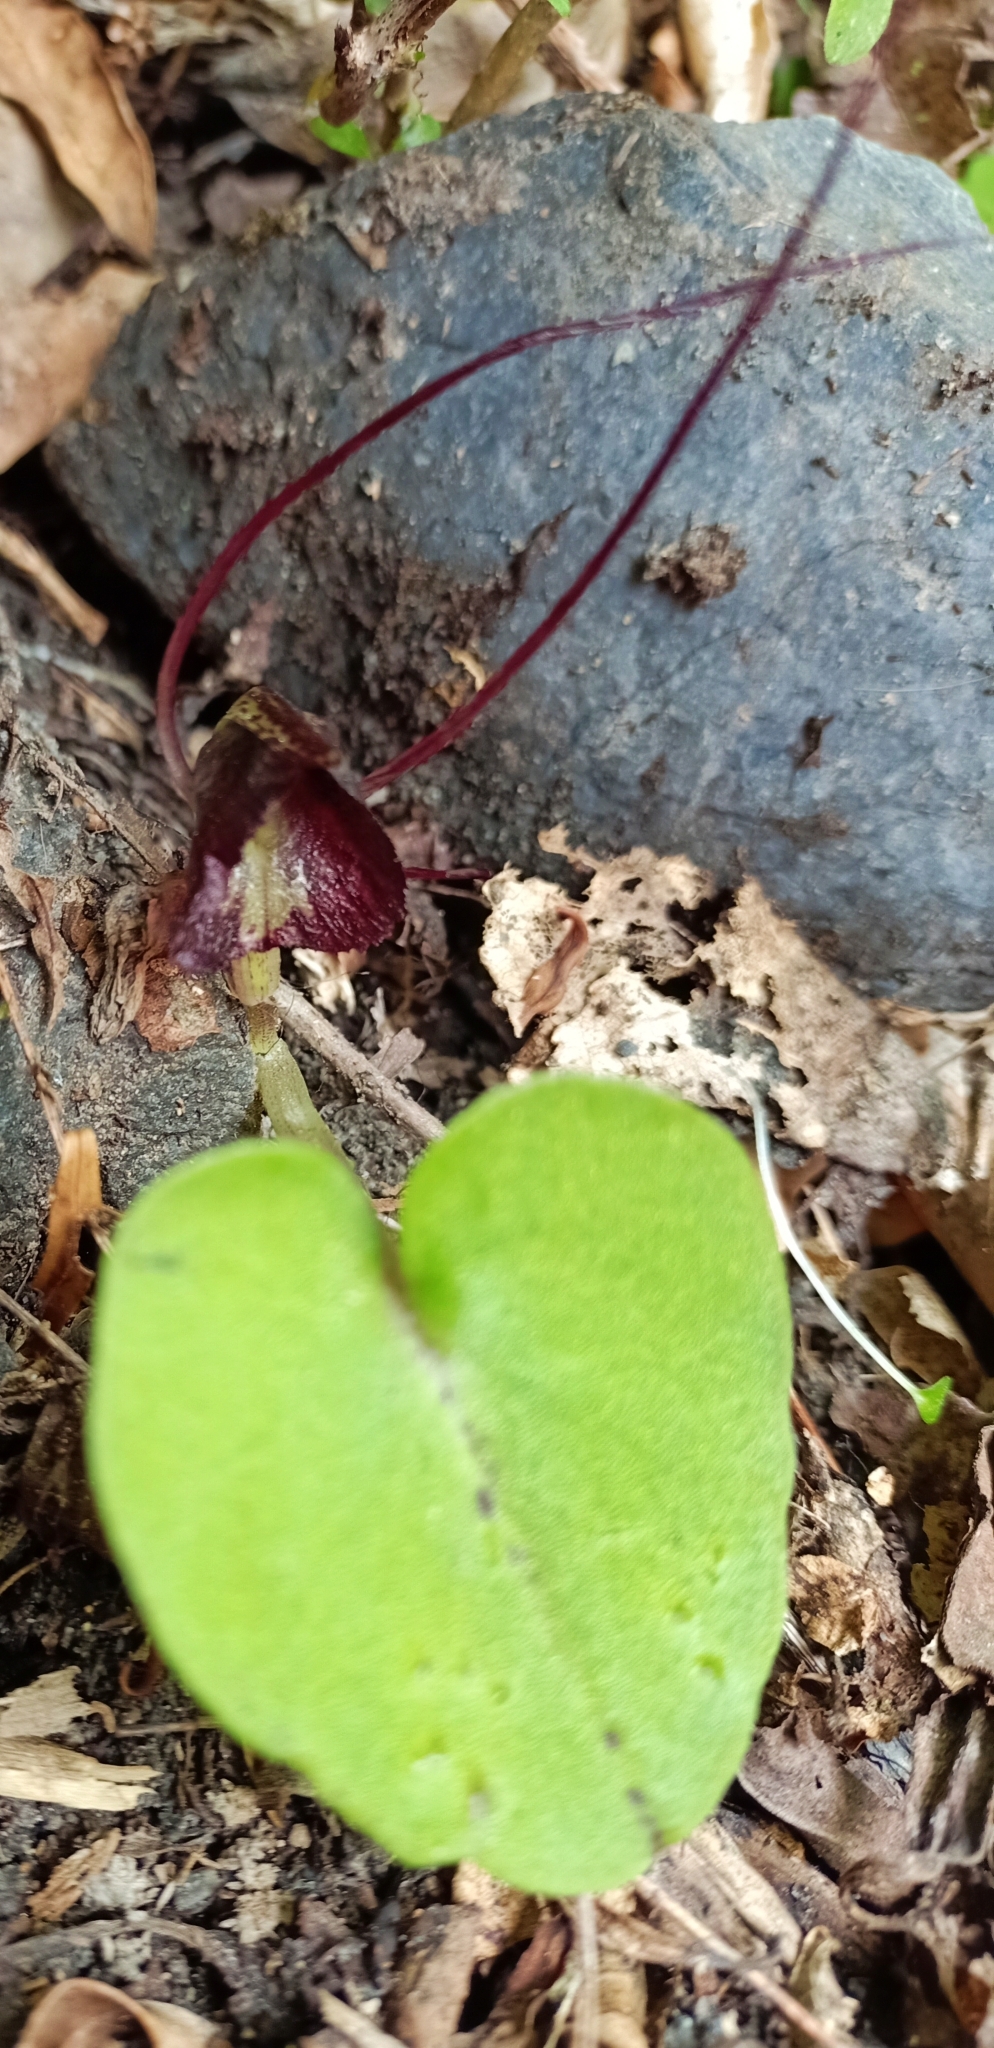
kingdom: Plantae
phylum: Tracheophyta
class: Liliopsida
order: Asparagales
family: Orchidaceae
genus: Corybas
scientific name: Corybas macranthus
